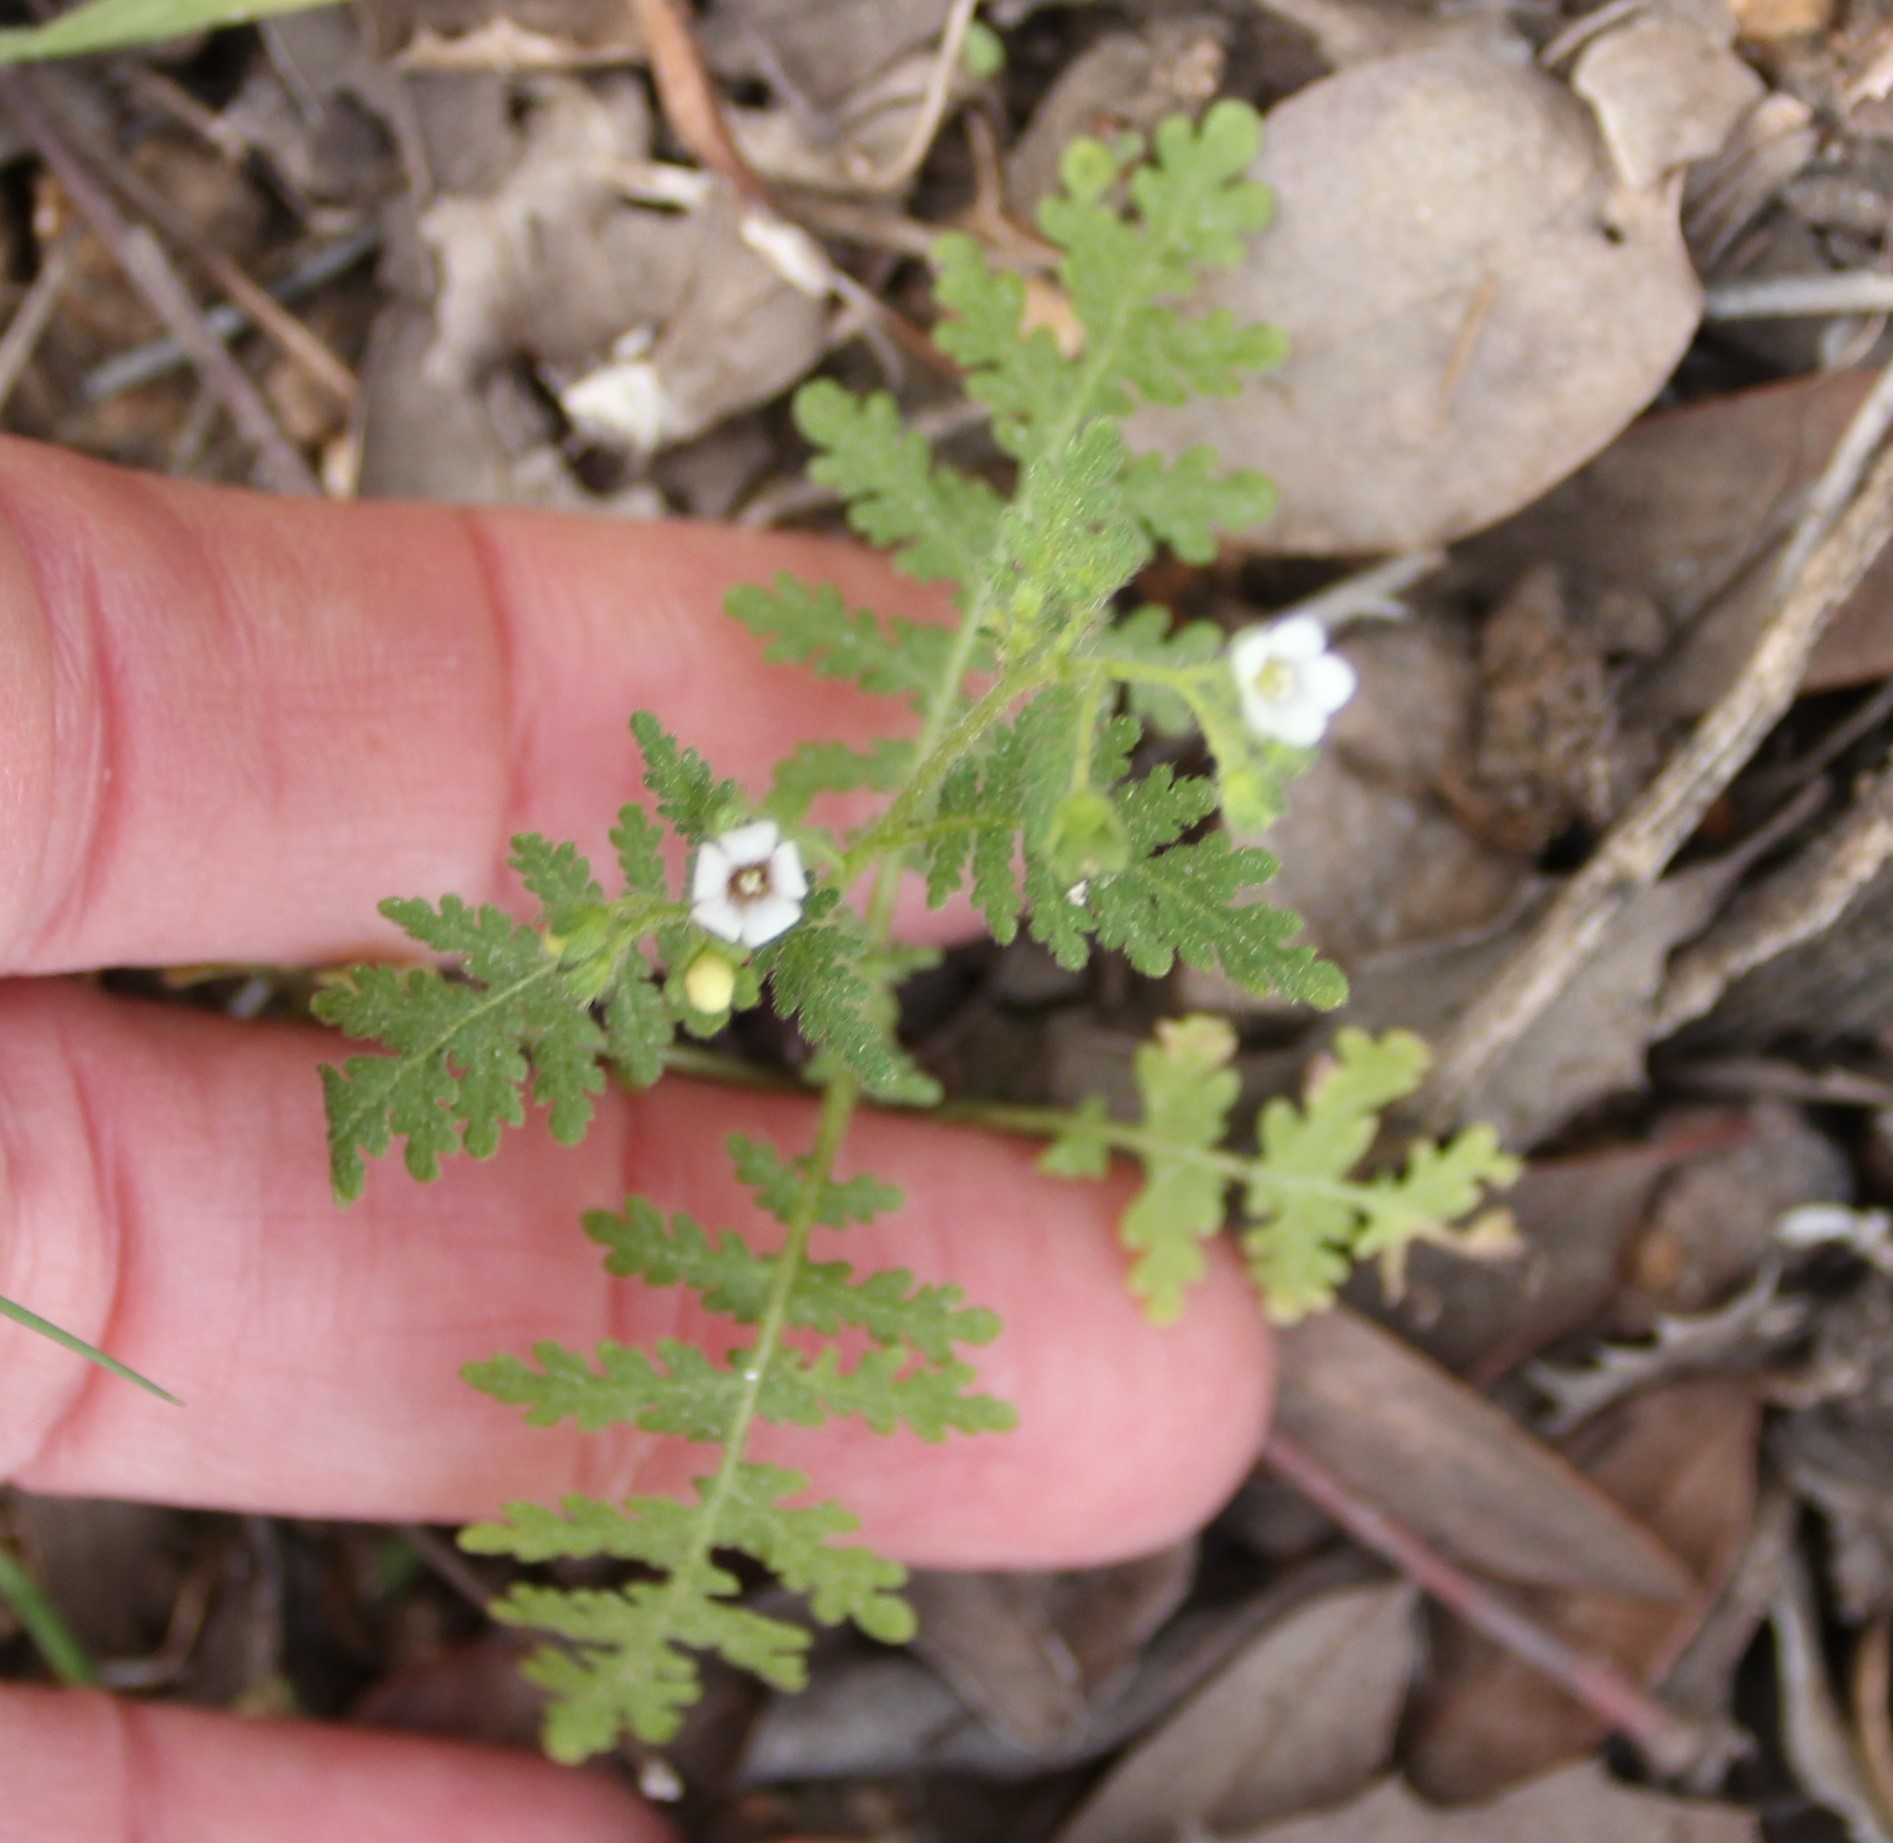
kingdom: Plantae
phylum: Tracheophyta
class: Magnoliopsida
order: Boraginales
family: Hydrophyllaceae
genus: Eucrypta
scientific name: Eucrypta chrysanthemifolia
